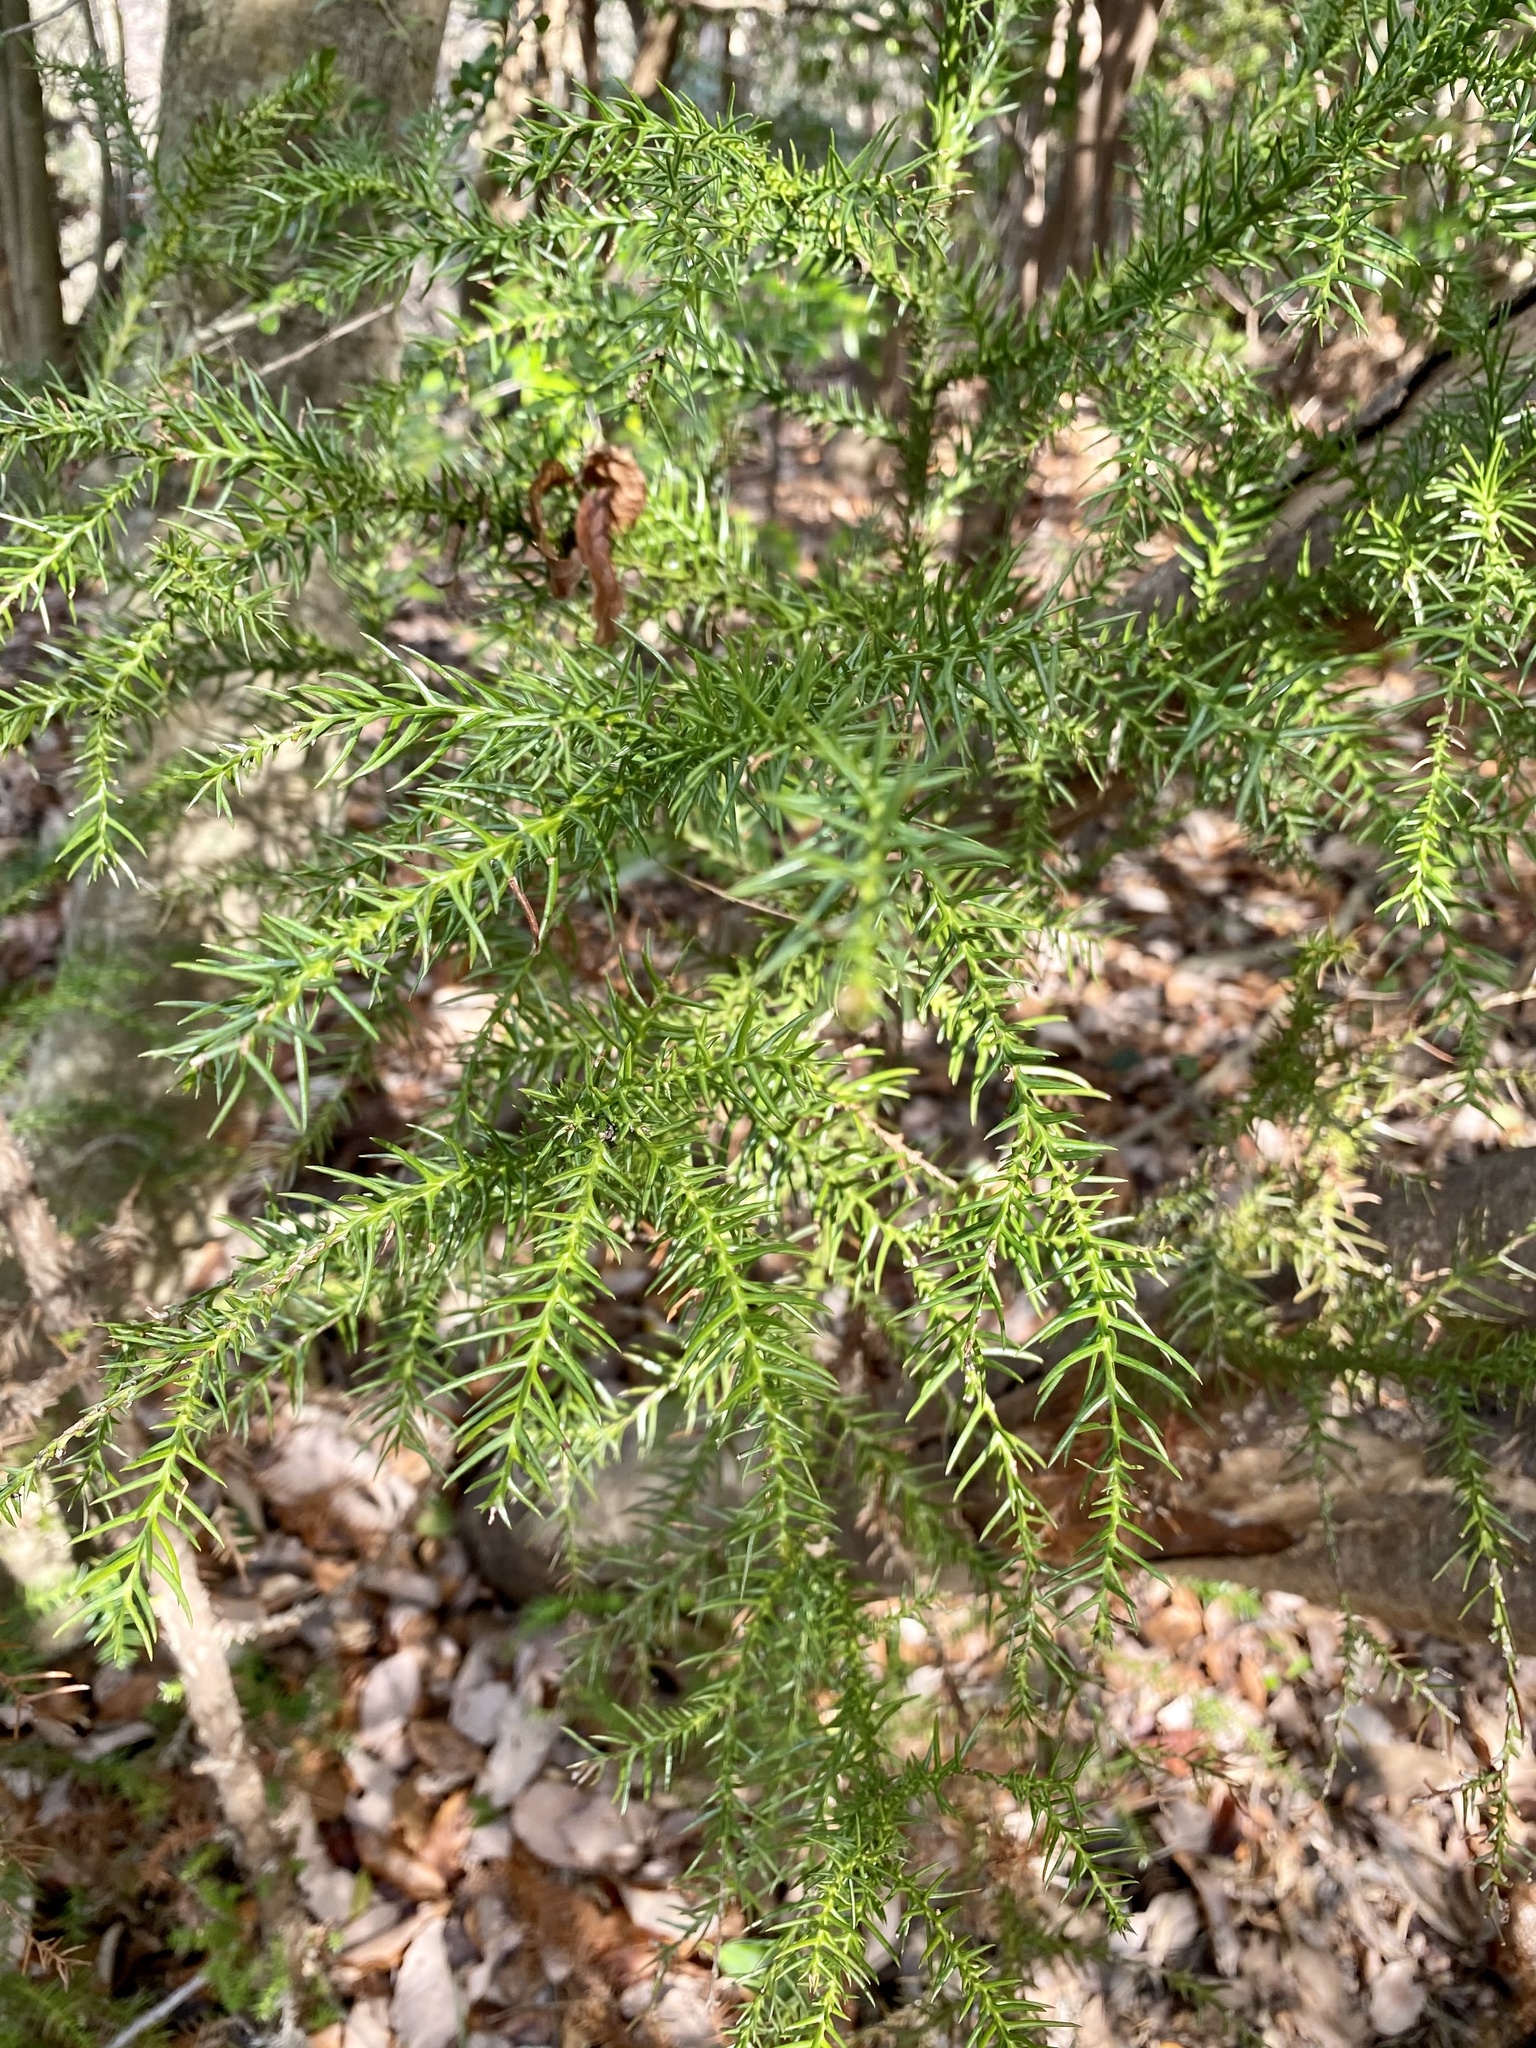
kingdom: Plantae
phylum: Tracheophyta
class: Pinopsida
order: Pinales
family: Cupressaceae
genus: Cryptomeria
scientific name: Cryptomeria japonica
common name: Japanese cedar
